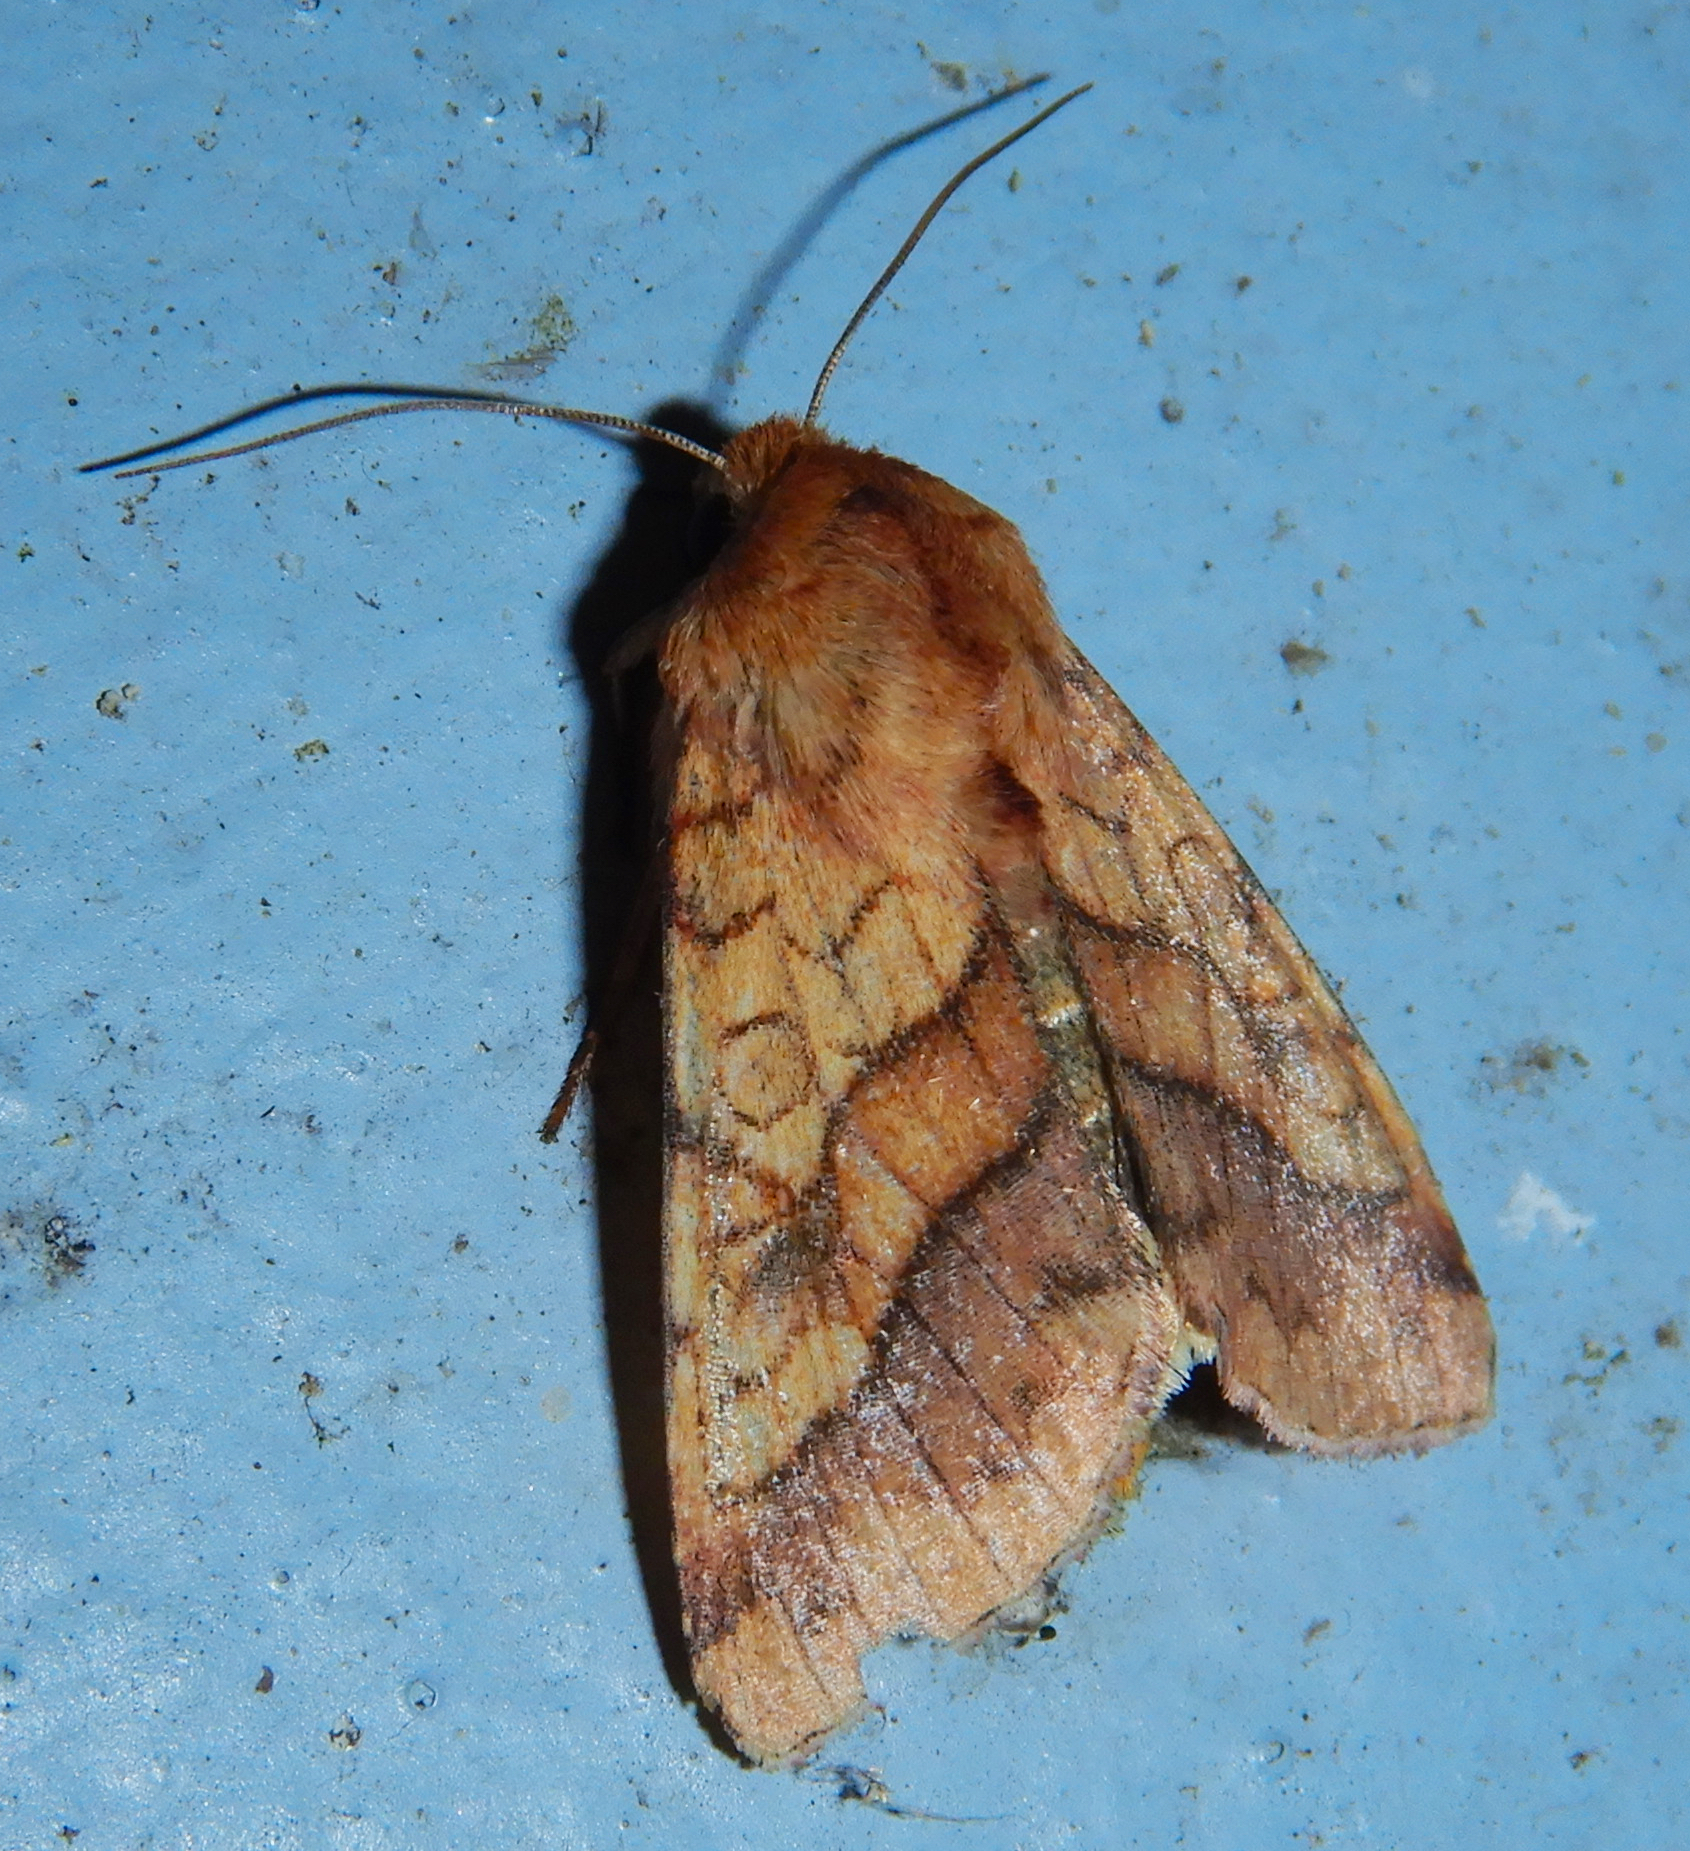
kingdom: Animalia
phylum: Arthropoda
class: Insecta
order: Lepidoptera
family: Noctuidae
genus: Pyrrhia
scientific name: Pyrrhia exprimens
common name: Purple-lined sallow
